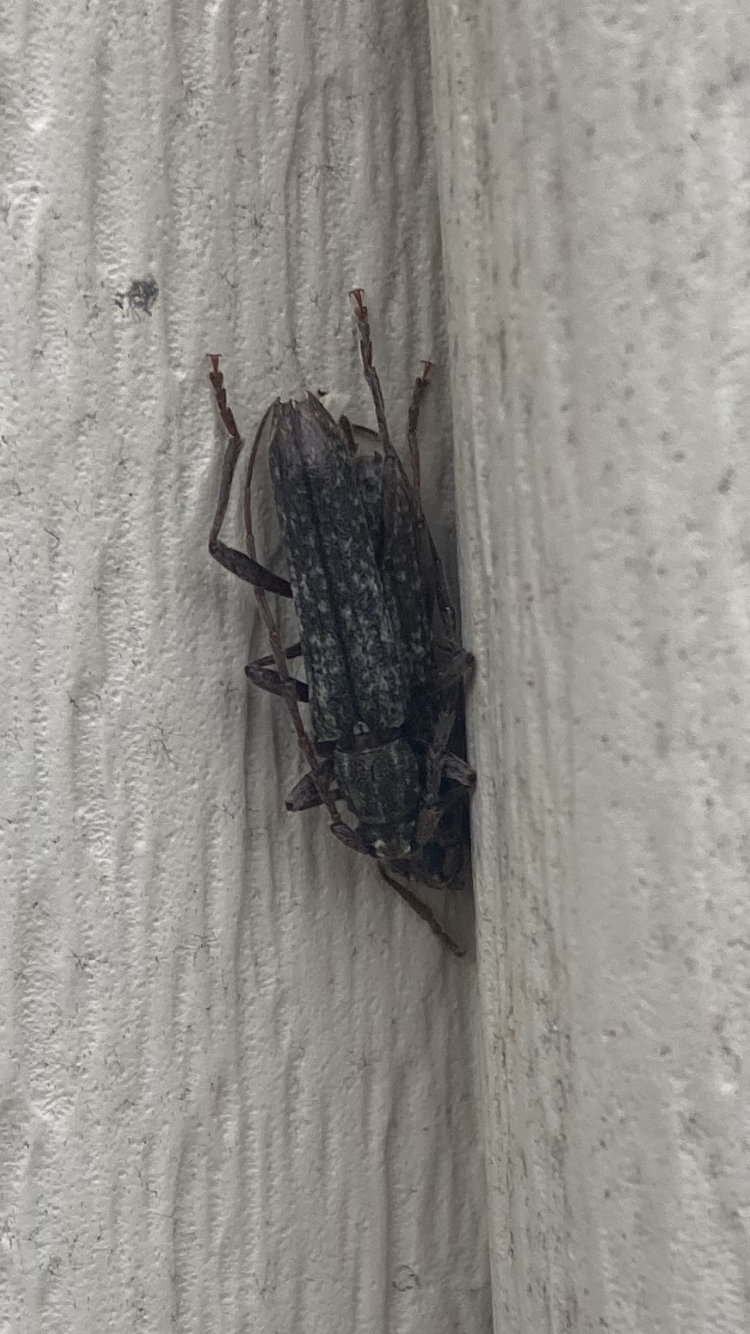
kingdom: Animalia
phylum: Arthropoda
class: Insecta
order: Coleoptera
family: Cerambycidae
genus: Anelaphus
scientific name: Anelaphus villosus
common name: Twig pruner
